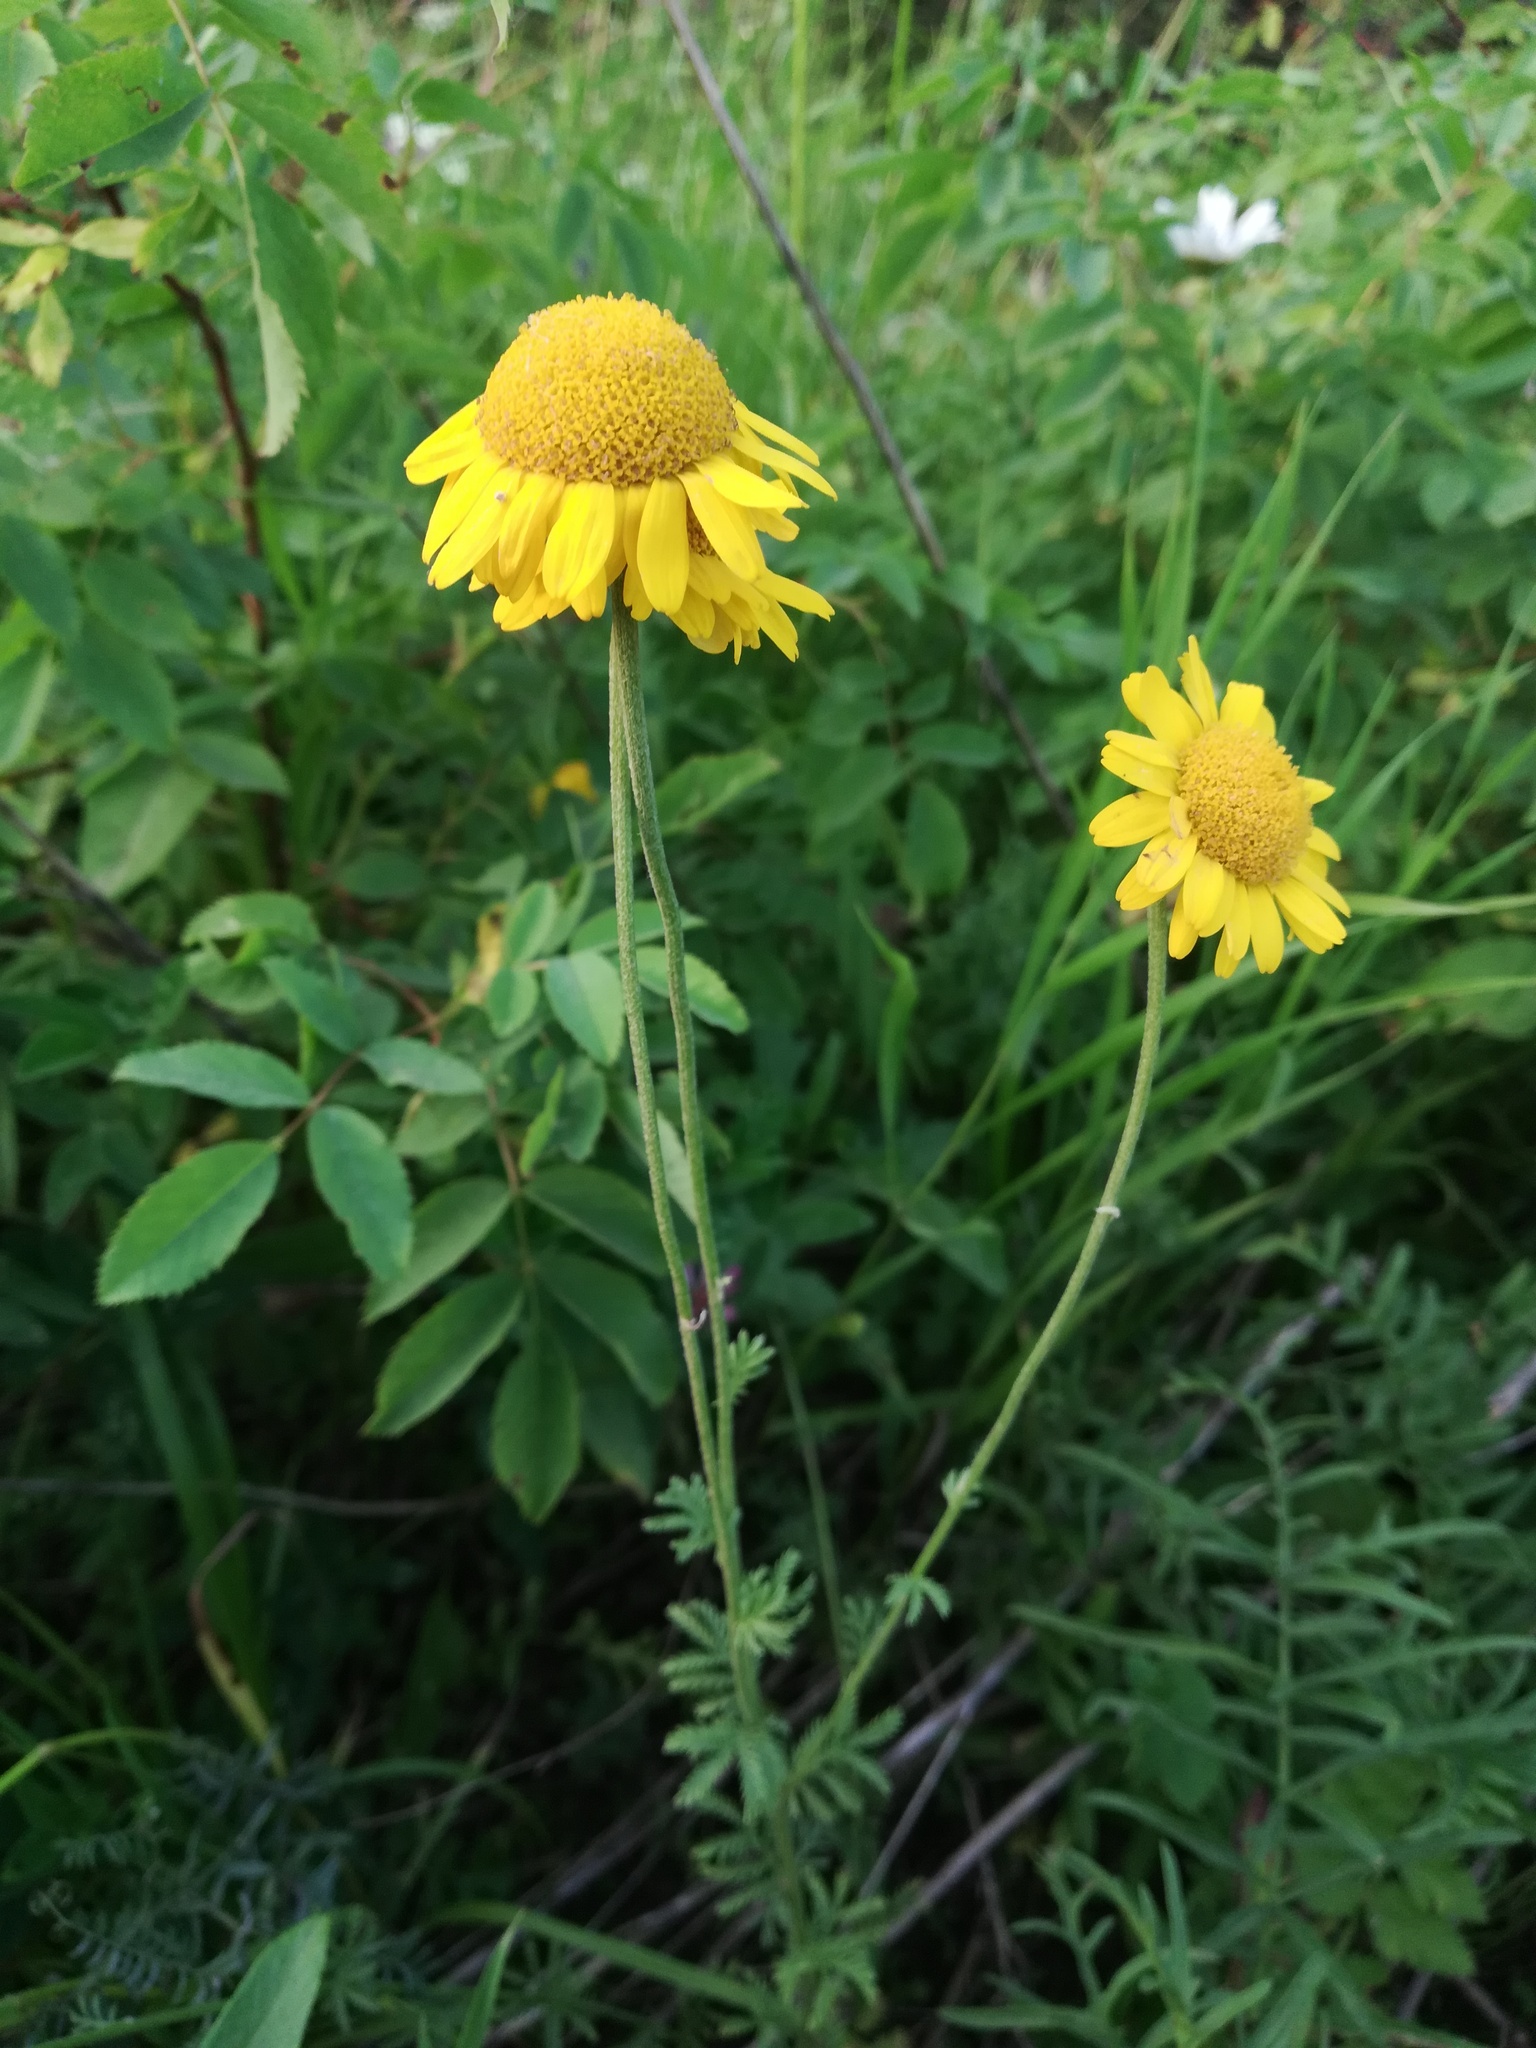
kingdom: Plantae
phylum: Tracheophyta
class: Magnoliopsida
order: Asterales
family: Asteraceae
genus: Cota
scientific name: Cota tinctoria
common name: Golden chamomile
